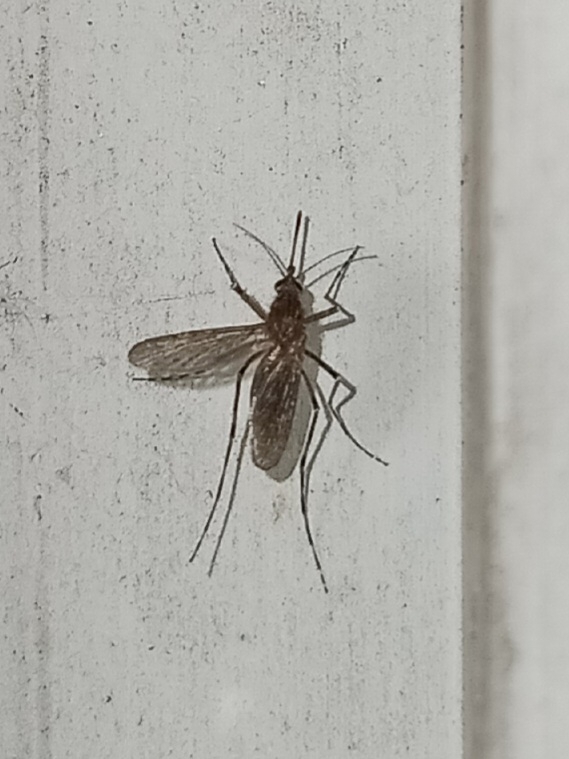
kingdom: Animalia
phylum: Arthropoda
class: Insecta
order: Diptera
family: Culicidae
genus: Coquillettidia
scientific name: Coquillettidia perturbans
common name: Cattail mosquito
